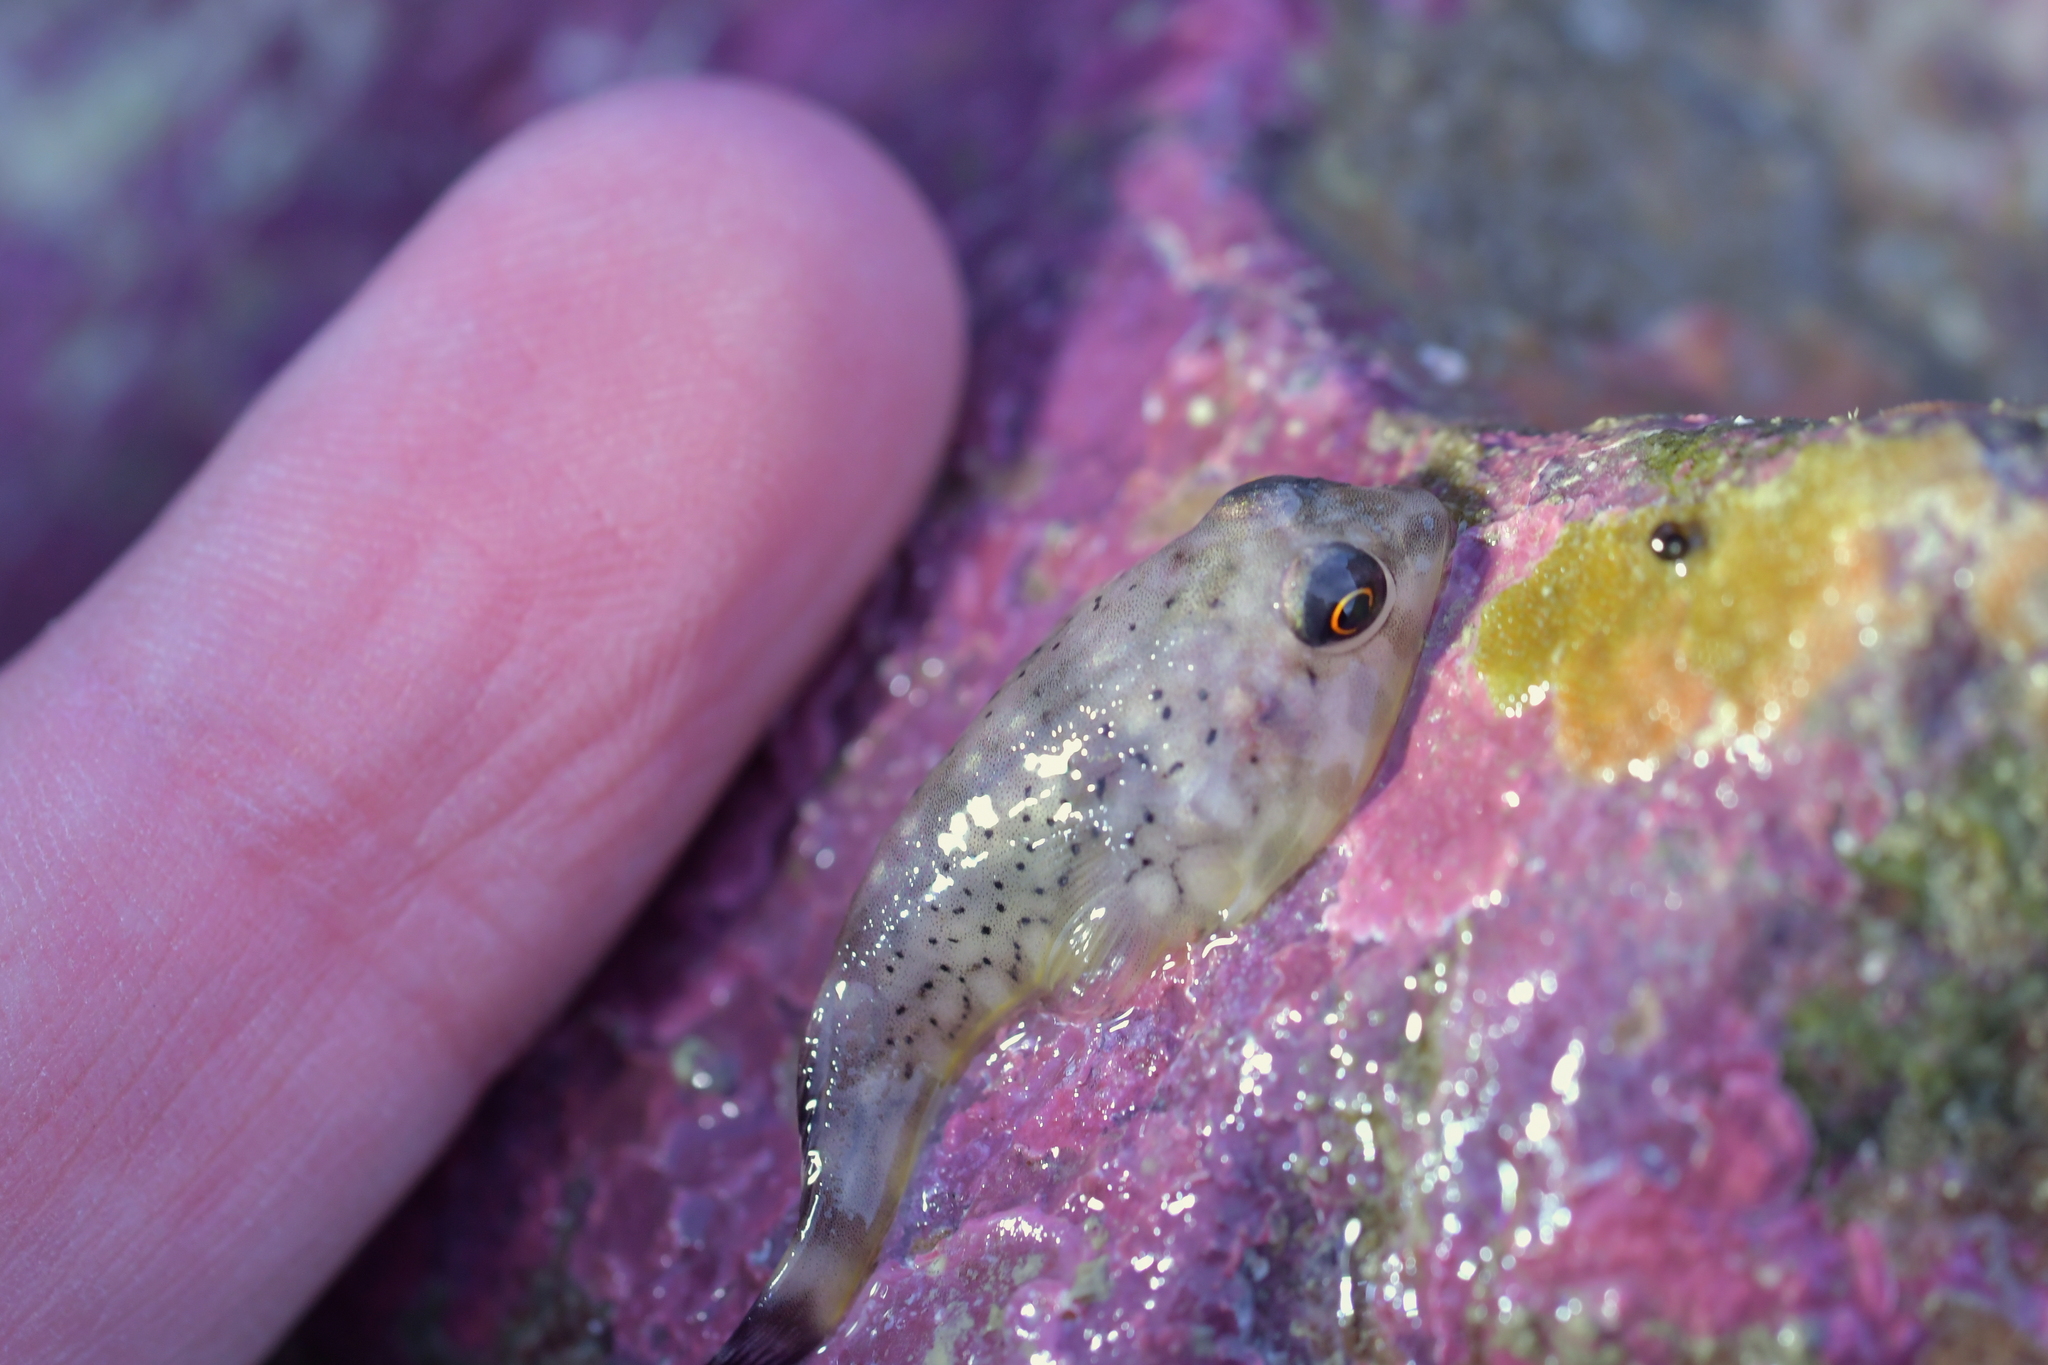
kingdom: Animalia
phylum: Chordata
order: Gobiesociformes
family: Gobiesocidae
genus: Diplocrepis
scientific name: Diplocrepis puniceus
